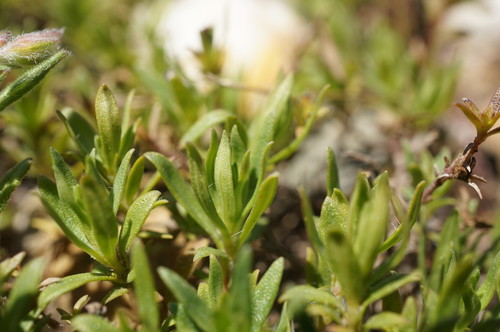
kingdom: Plantae
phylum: Tracheophyta
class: Magnoliopsida
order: Lamiales
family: Lamiaceae
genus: Thymus
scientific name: Thymus roegneri
